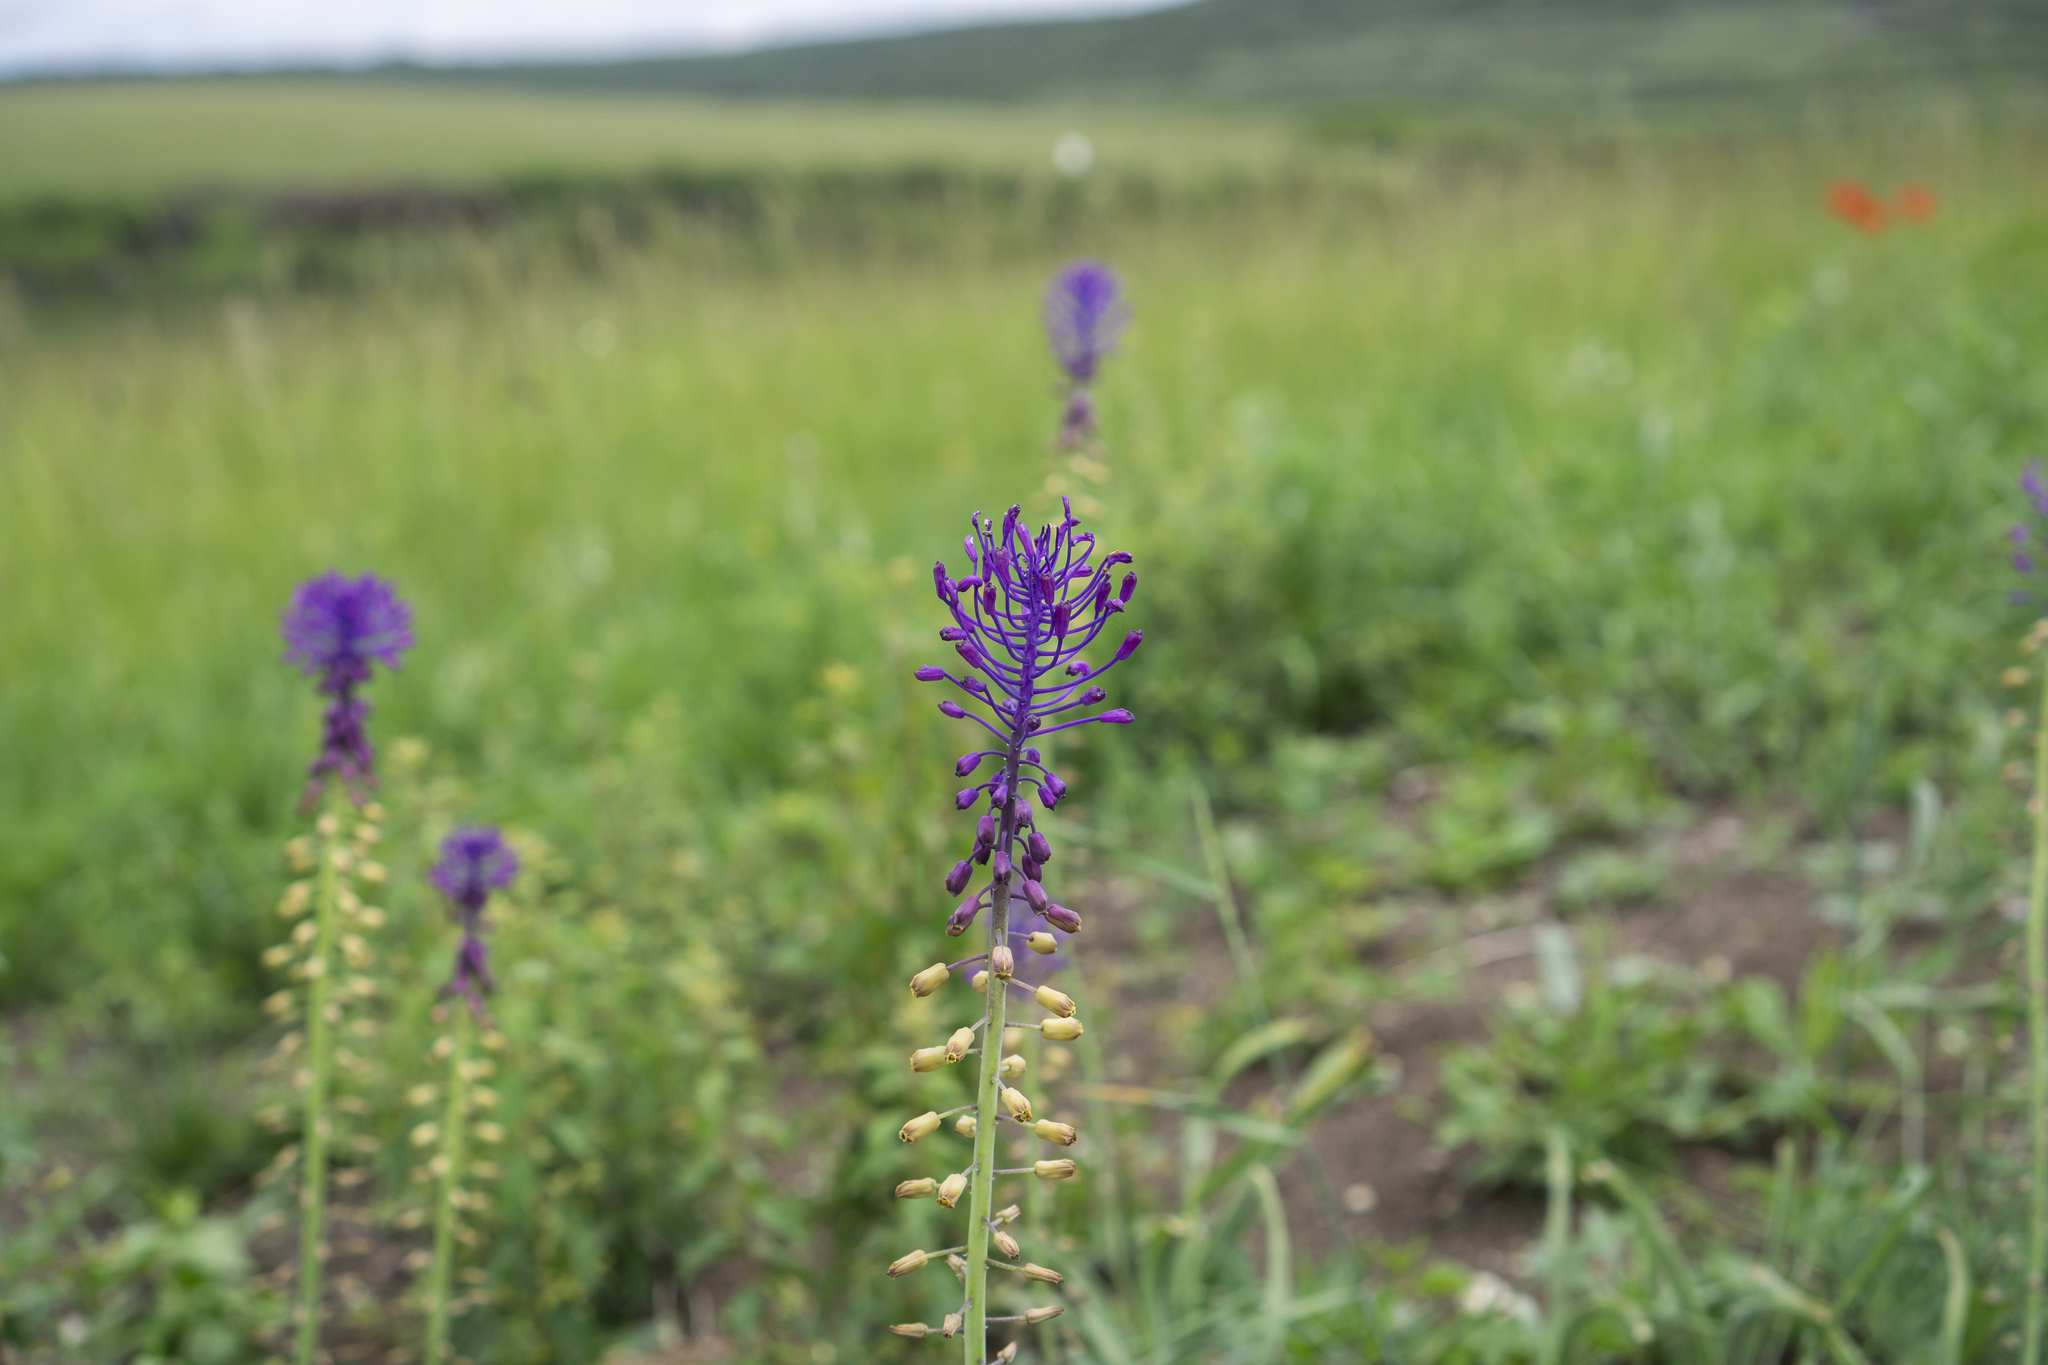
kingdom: Plantae
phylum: Tracheophyta
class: Liliopsida
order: Asparagales
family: Asparagaceae
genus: Muscari
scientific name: Muscari comosum
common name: Tassel hyacinth
